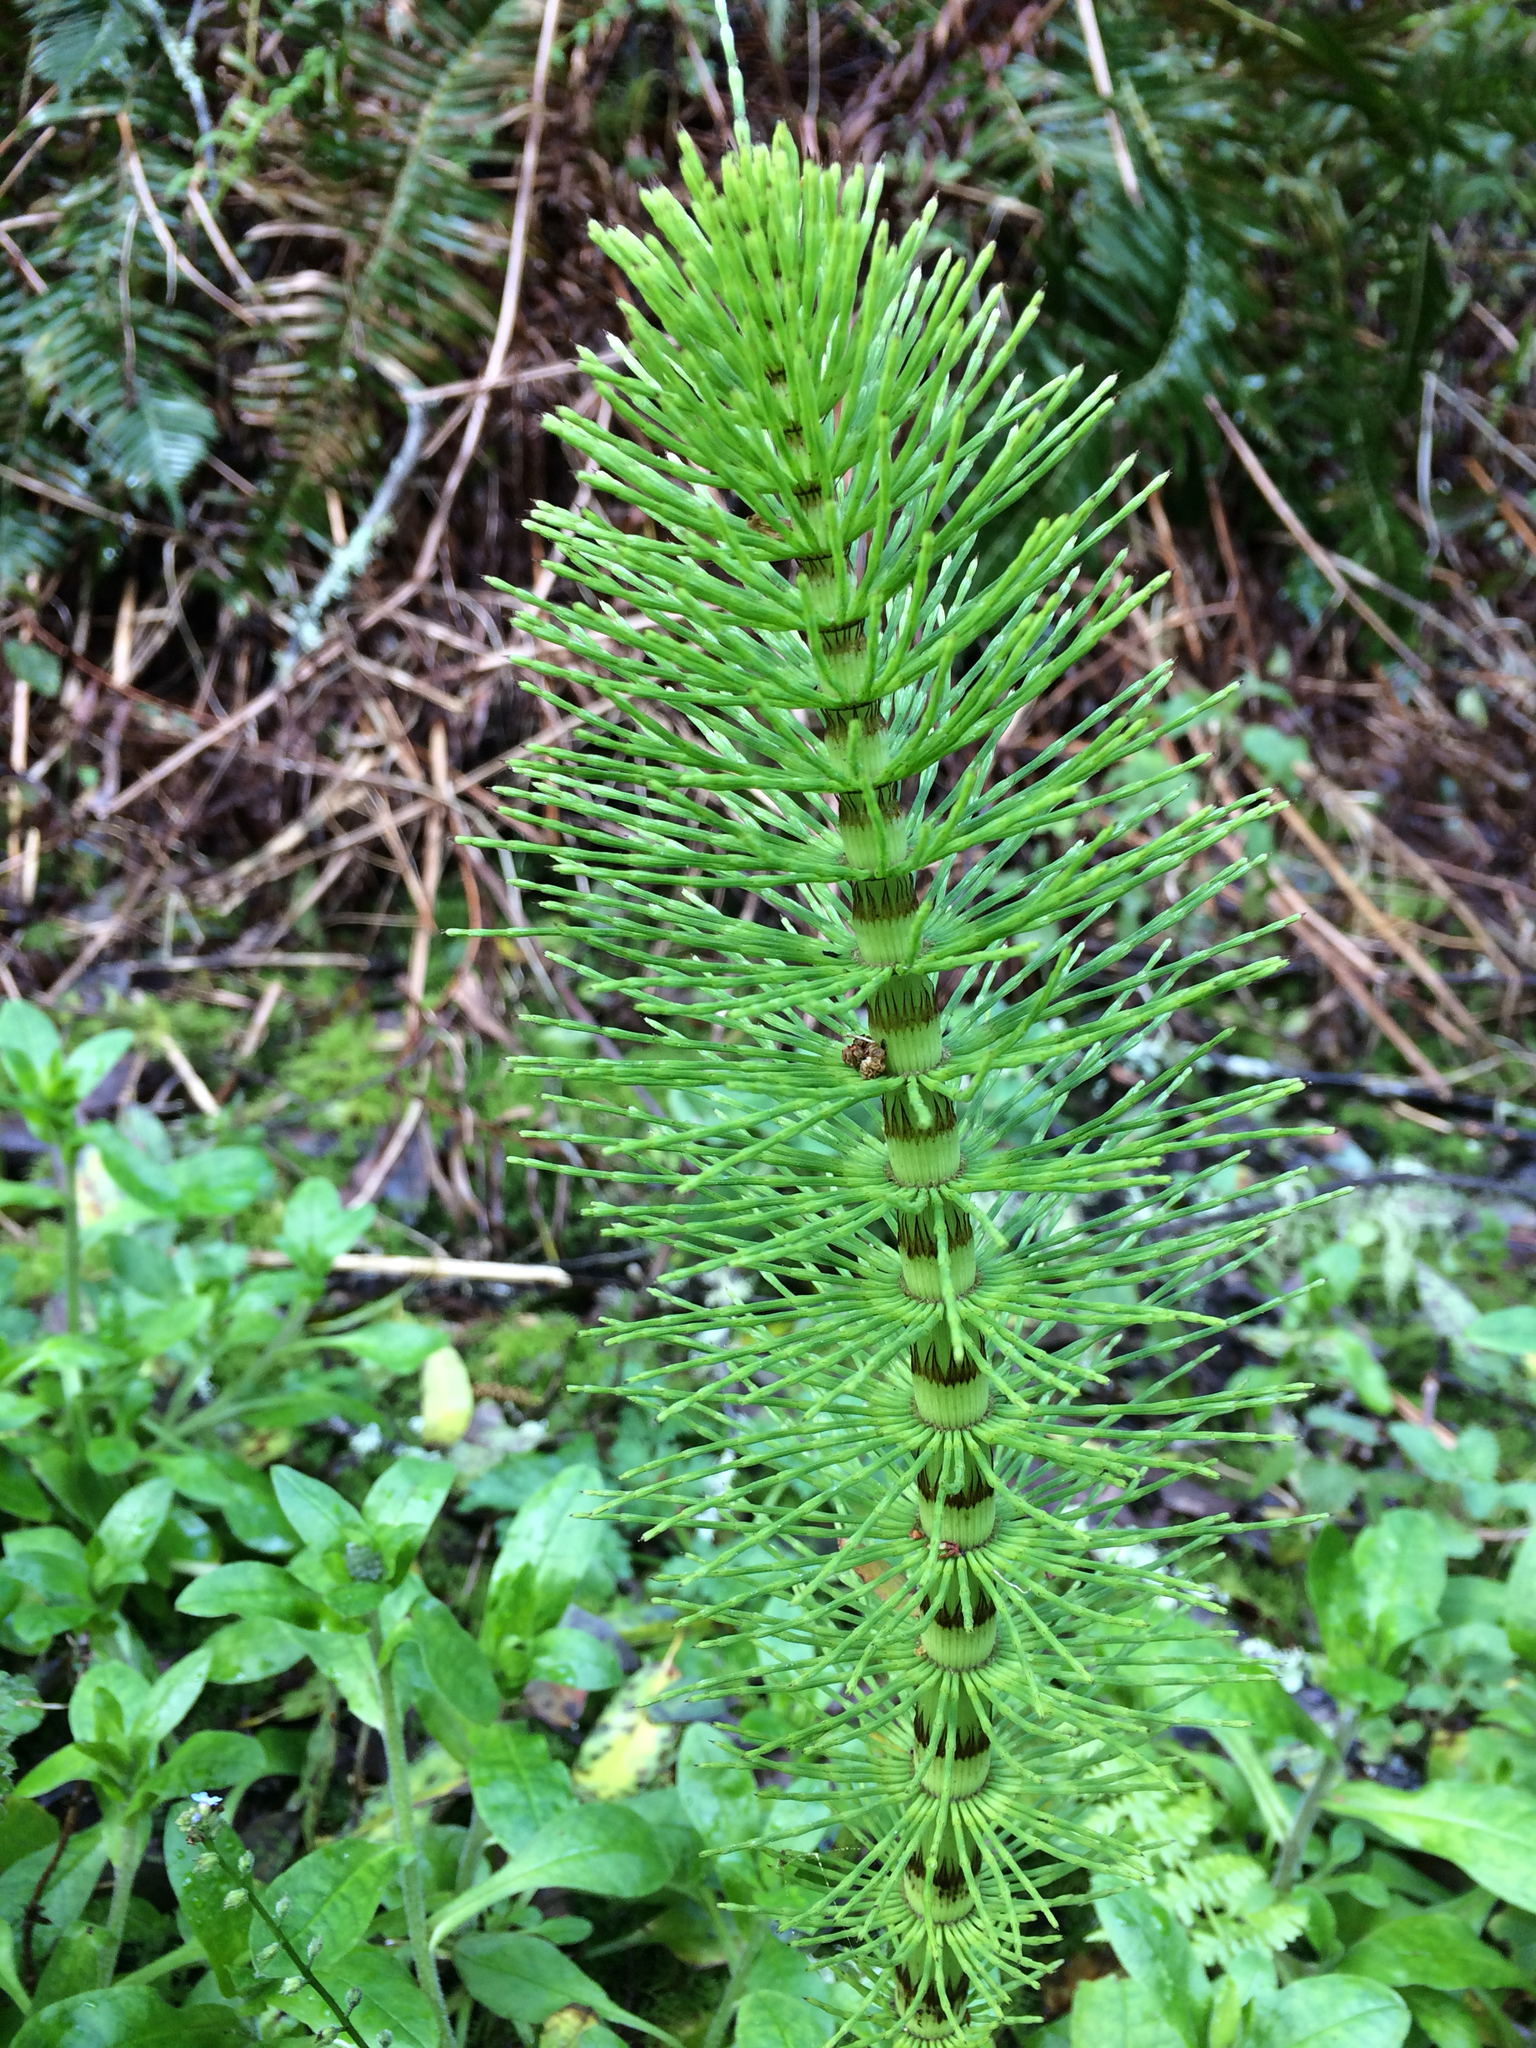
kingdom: Plantae
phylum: Tracheophyta
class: Polypodiopsida
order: Equisetales
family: Equisetaceae
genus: Equisetum
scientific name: Equisetum telmateia
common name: Great horsetail
